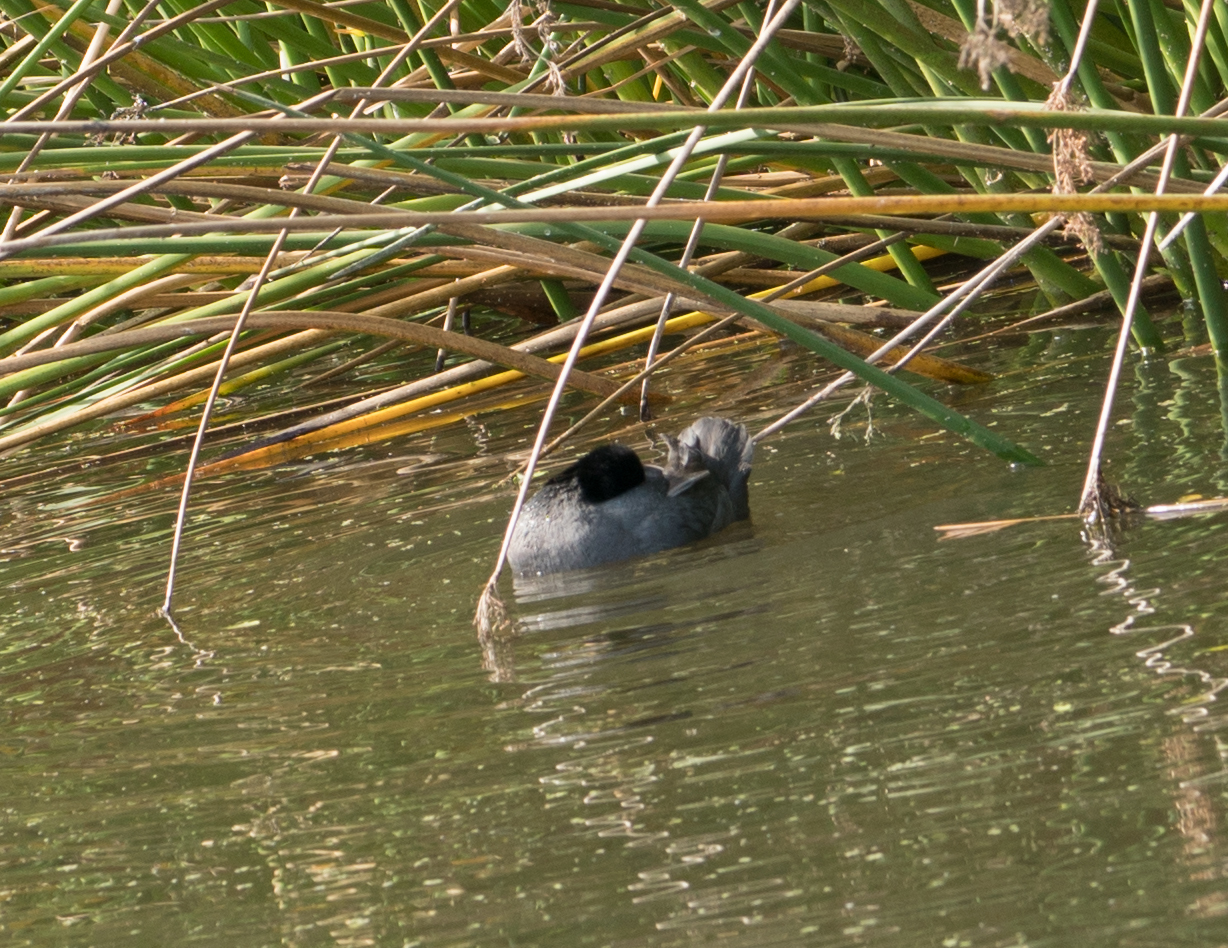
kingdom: Animalia
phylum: Chordata
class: Aves
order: Gruiformes
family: Rallidae
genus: Fulica
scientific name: Fulica americana
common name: American coot
